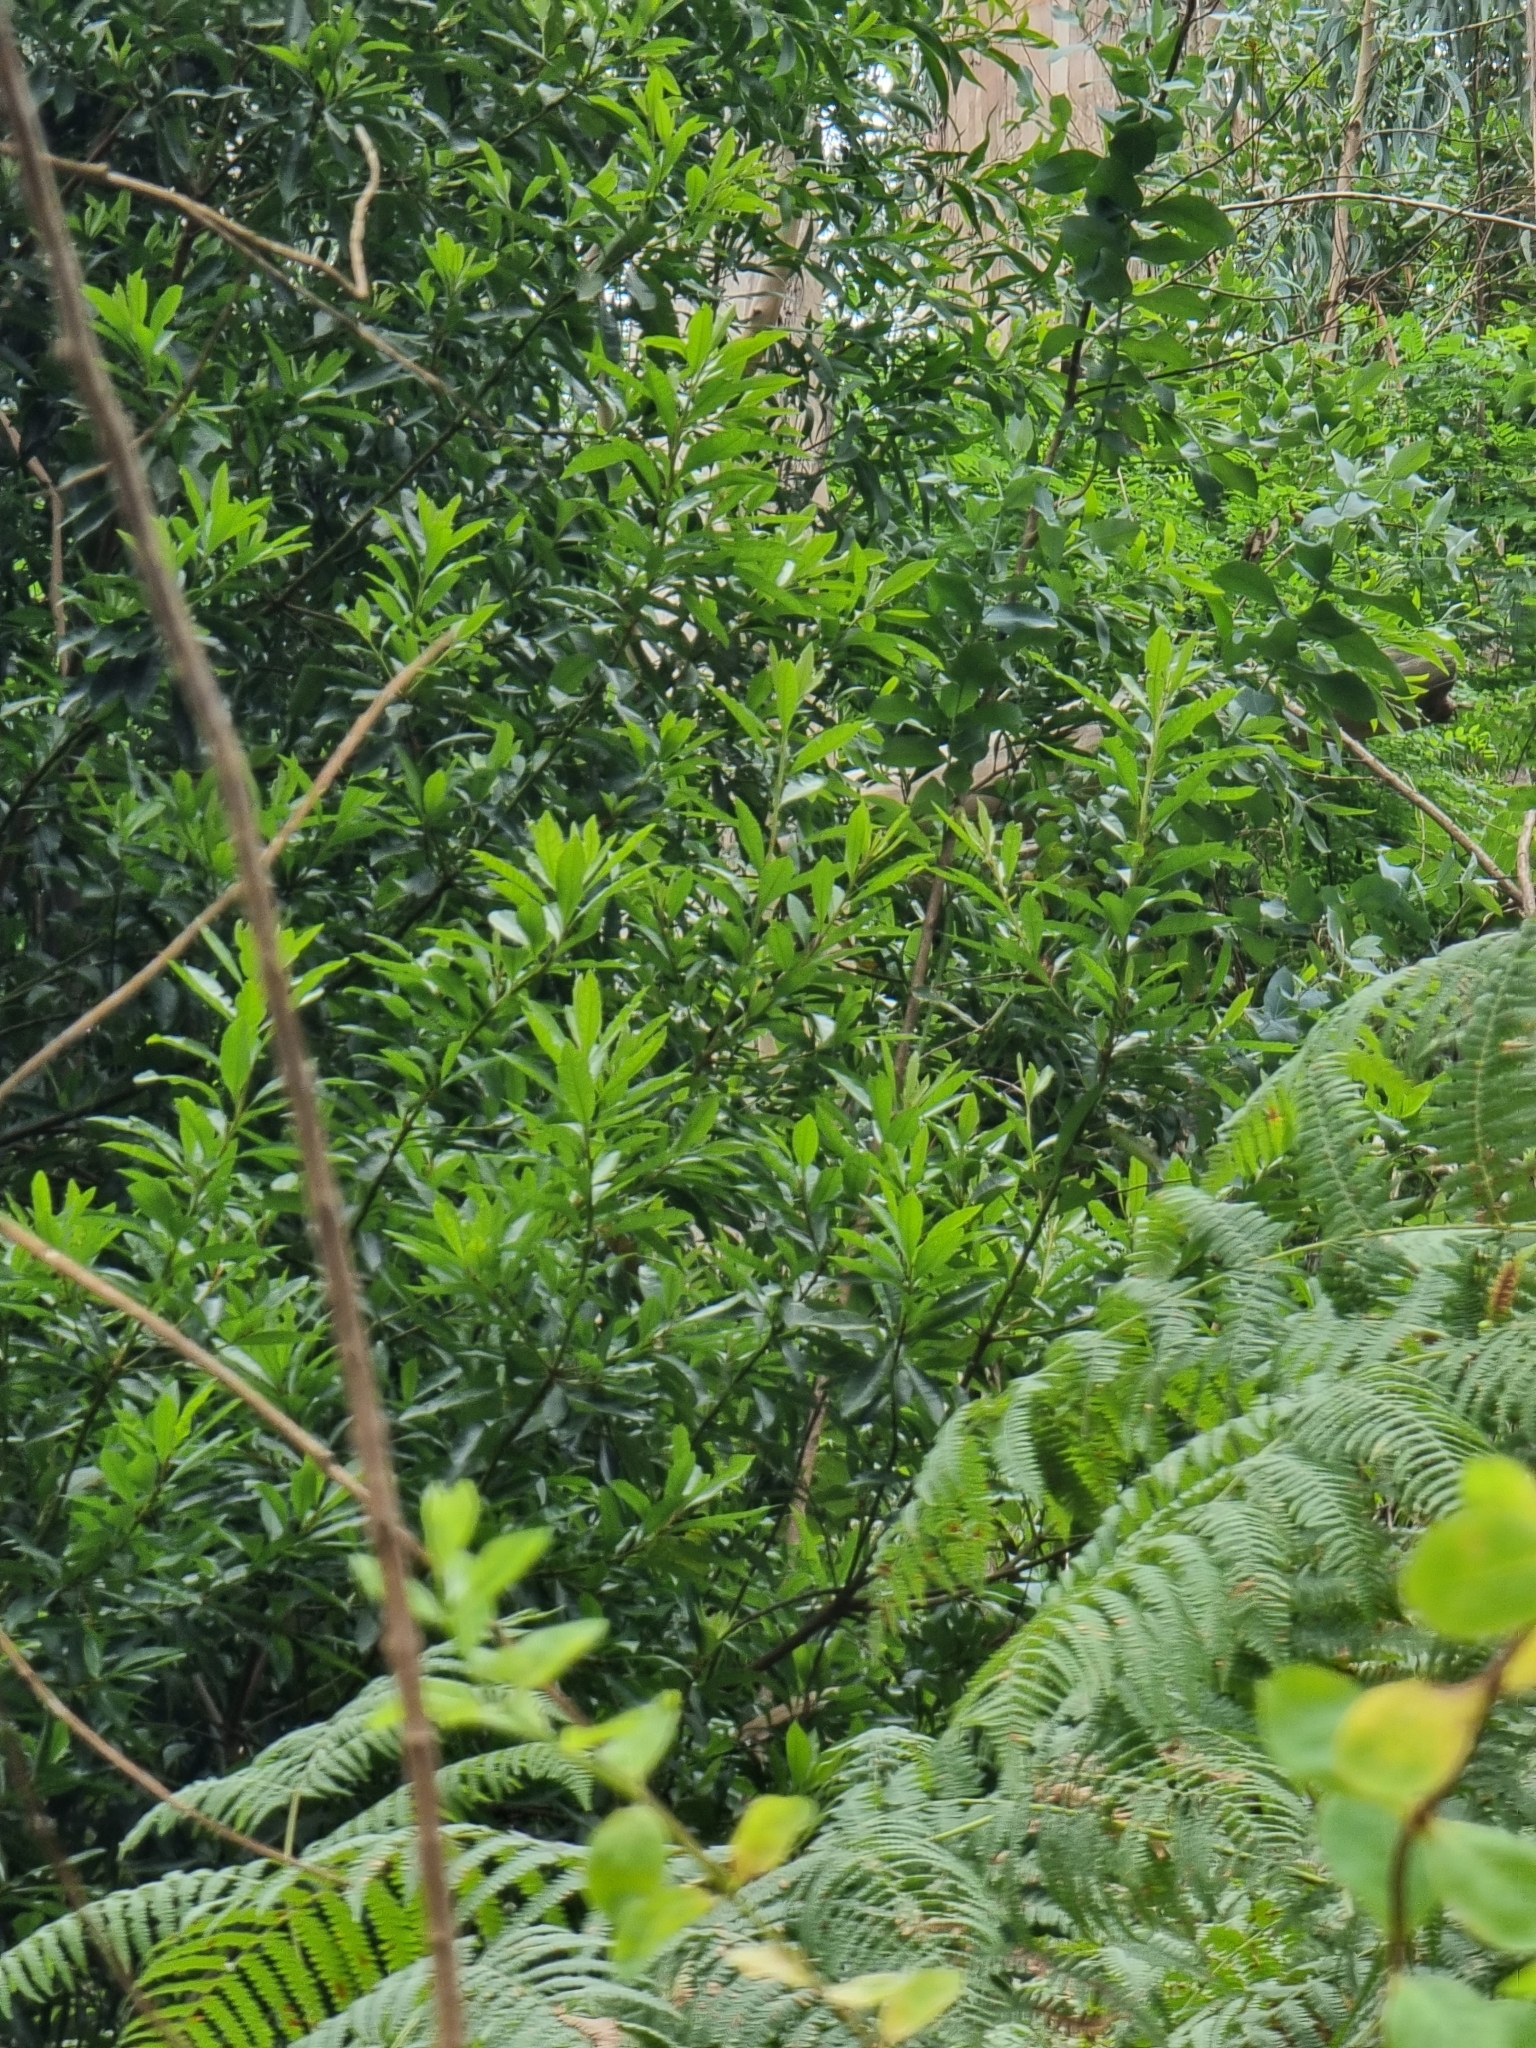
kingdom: Plantae
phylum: Tracheophyta
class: Magnoliopsida
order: Fagales
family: Myricaceae
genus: Morella
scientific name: Morella faya
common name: Firetree
